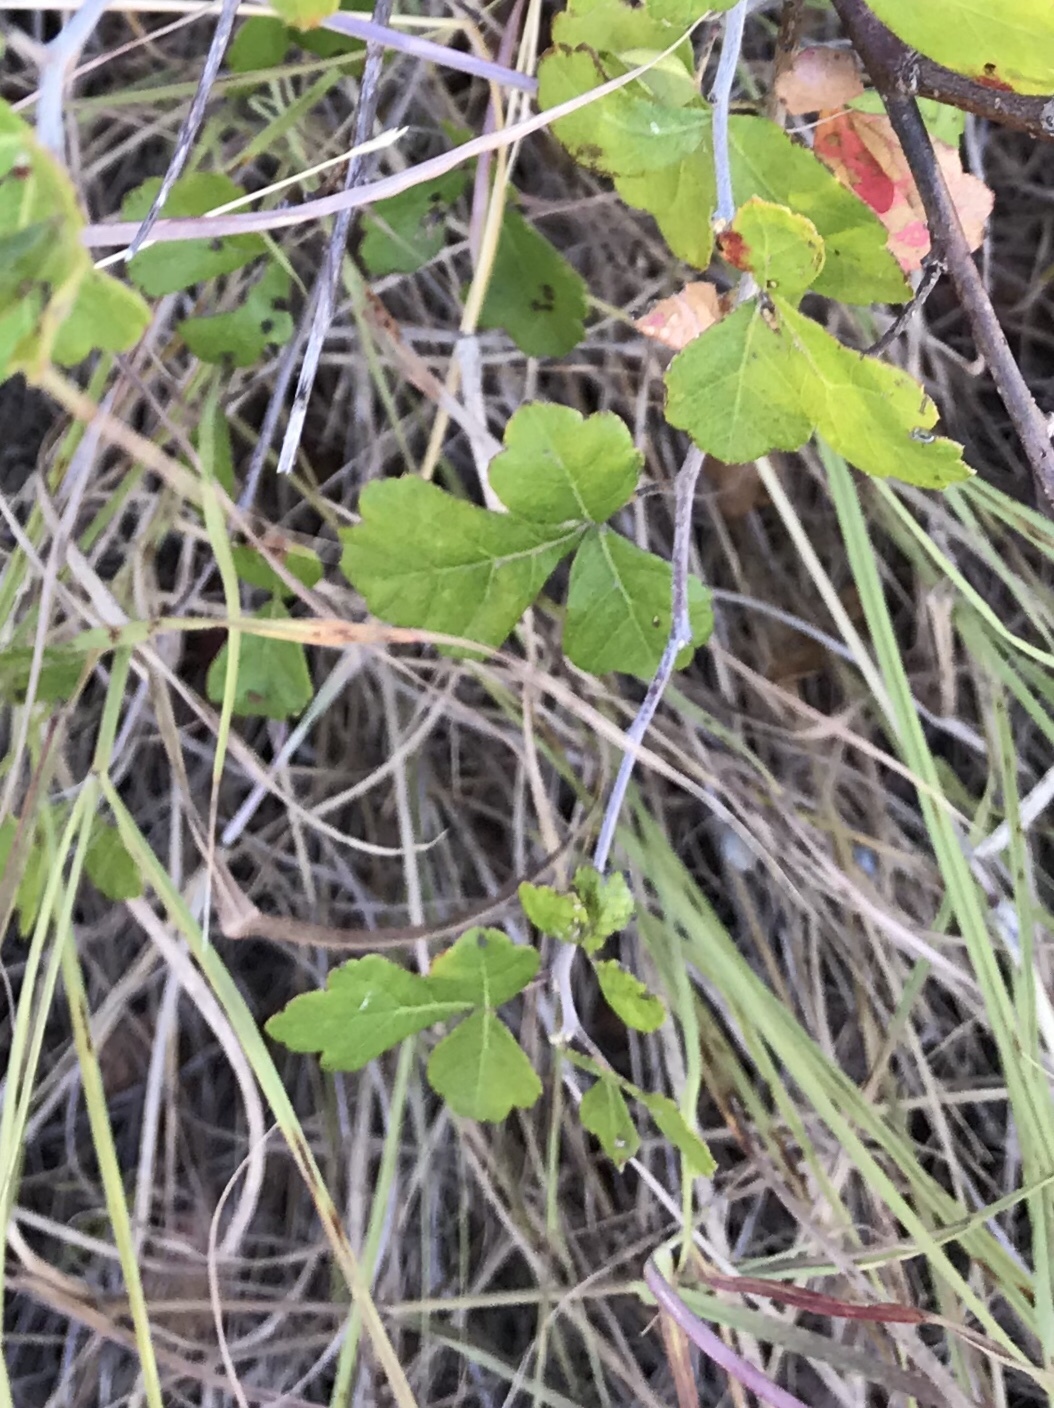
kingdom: Plantae
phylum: Tracheophyta
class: Magnoliopsida
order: Sapindales
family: Anacardiaceae
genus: Rhus
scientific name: Rhus aromatica
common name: Aromatic sumac
